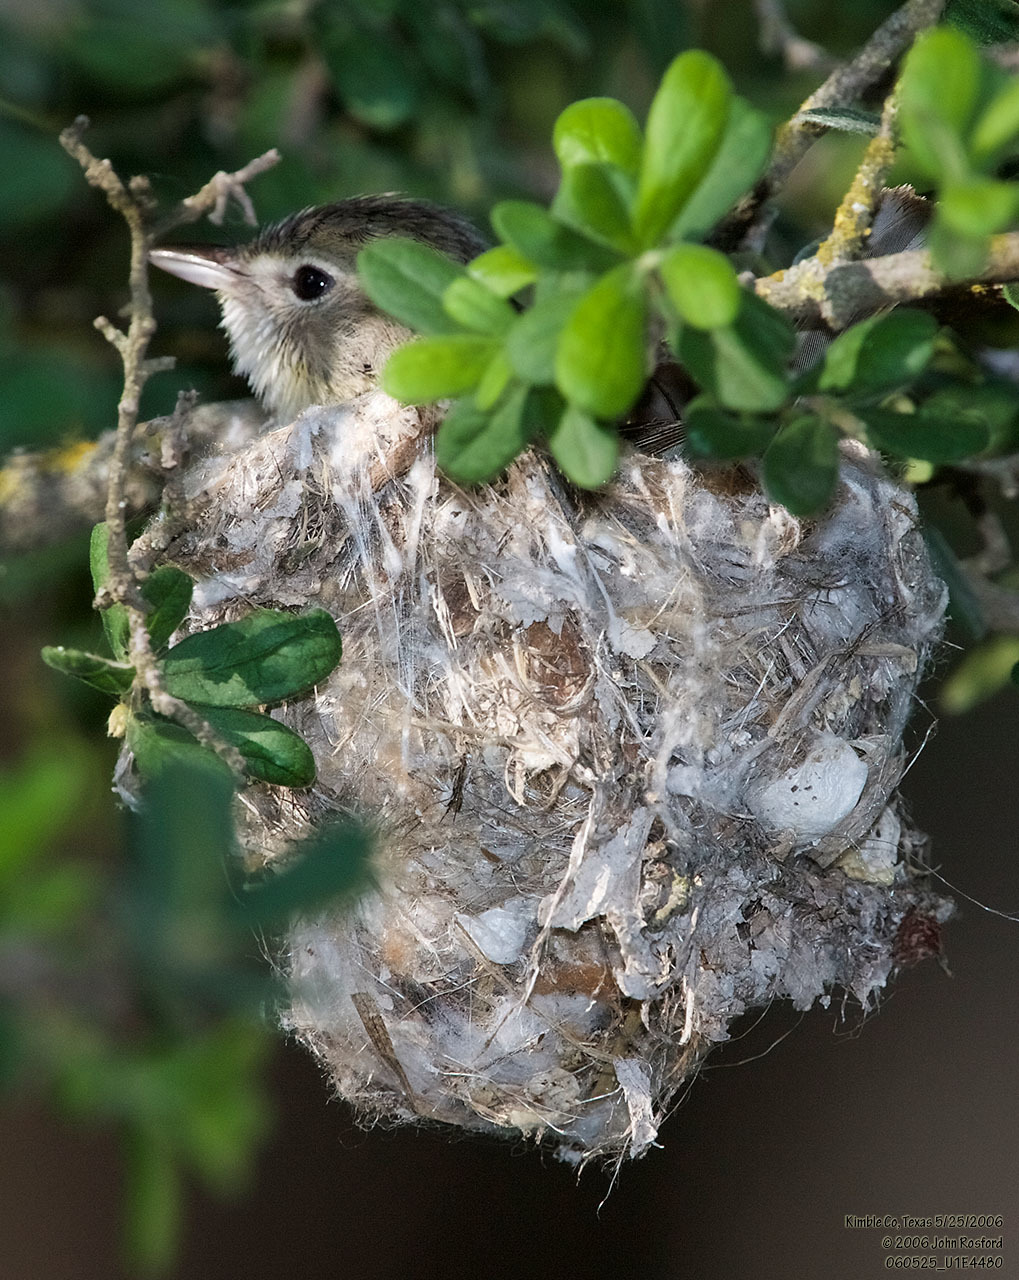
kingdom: Animalia
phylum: Chordata
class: Aves
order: Passeriformes
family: Vireonidae
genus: Vireo
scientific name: Vireo bellii
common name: Bell's vireo
